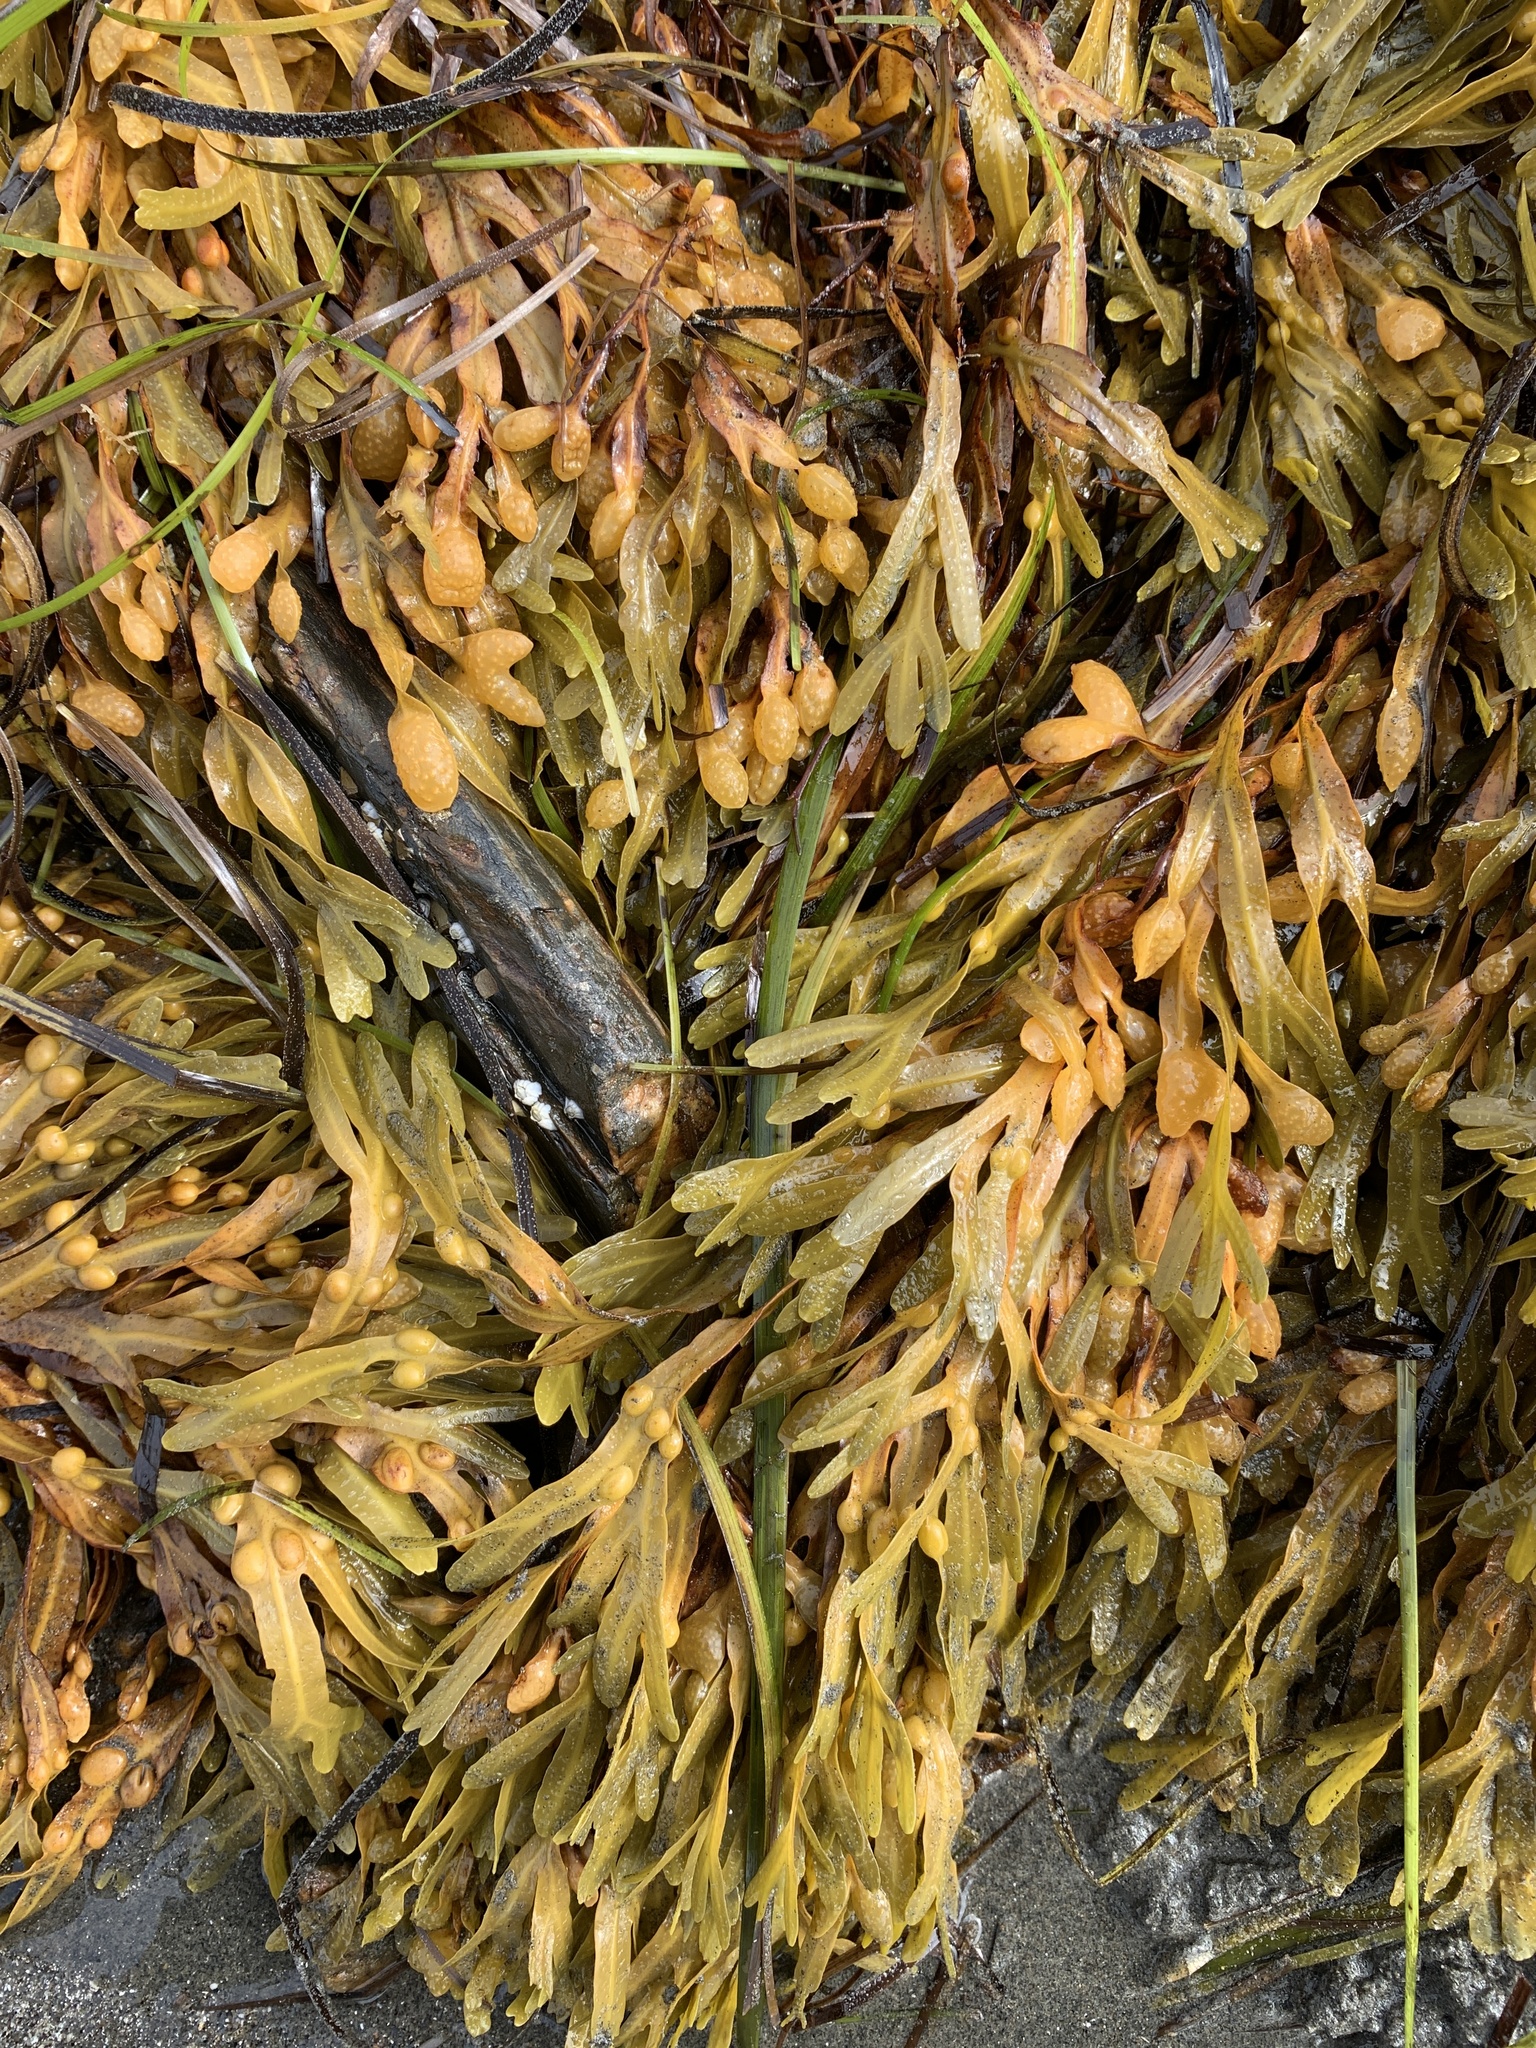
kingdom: Chromista
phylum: Ochrophyta
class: Phaeophyceae
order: Fucales
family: Fucaceae
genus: Fucus
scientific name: Fucus vesiculosus
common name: Bladder wrack
